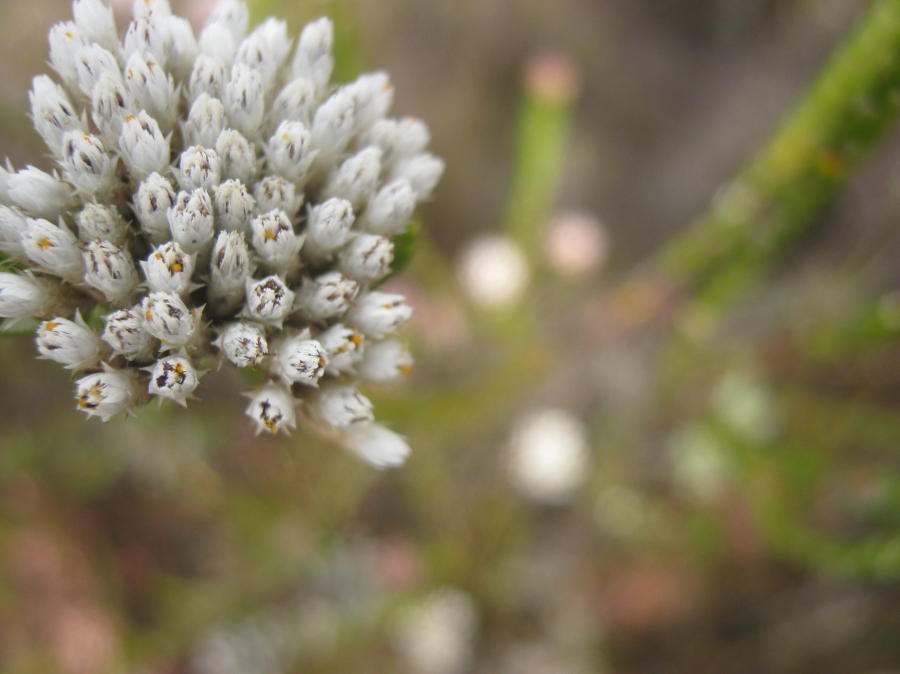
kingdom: Plantae
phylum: Tracheophyta
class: Magnoliopsida
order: Asterales
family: Asteraceae
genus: Metalasia
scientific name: Metalasia pulcherrima
